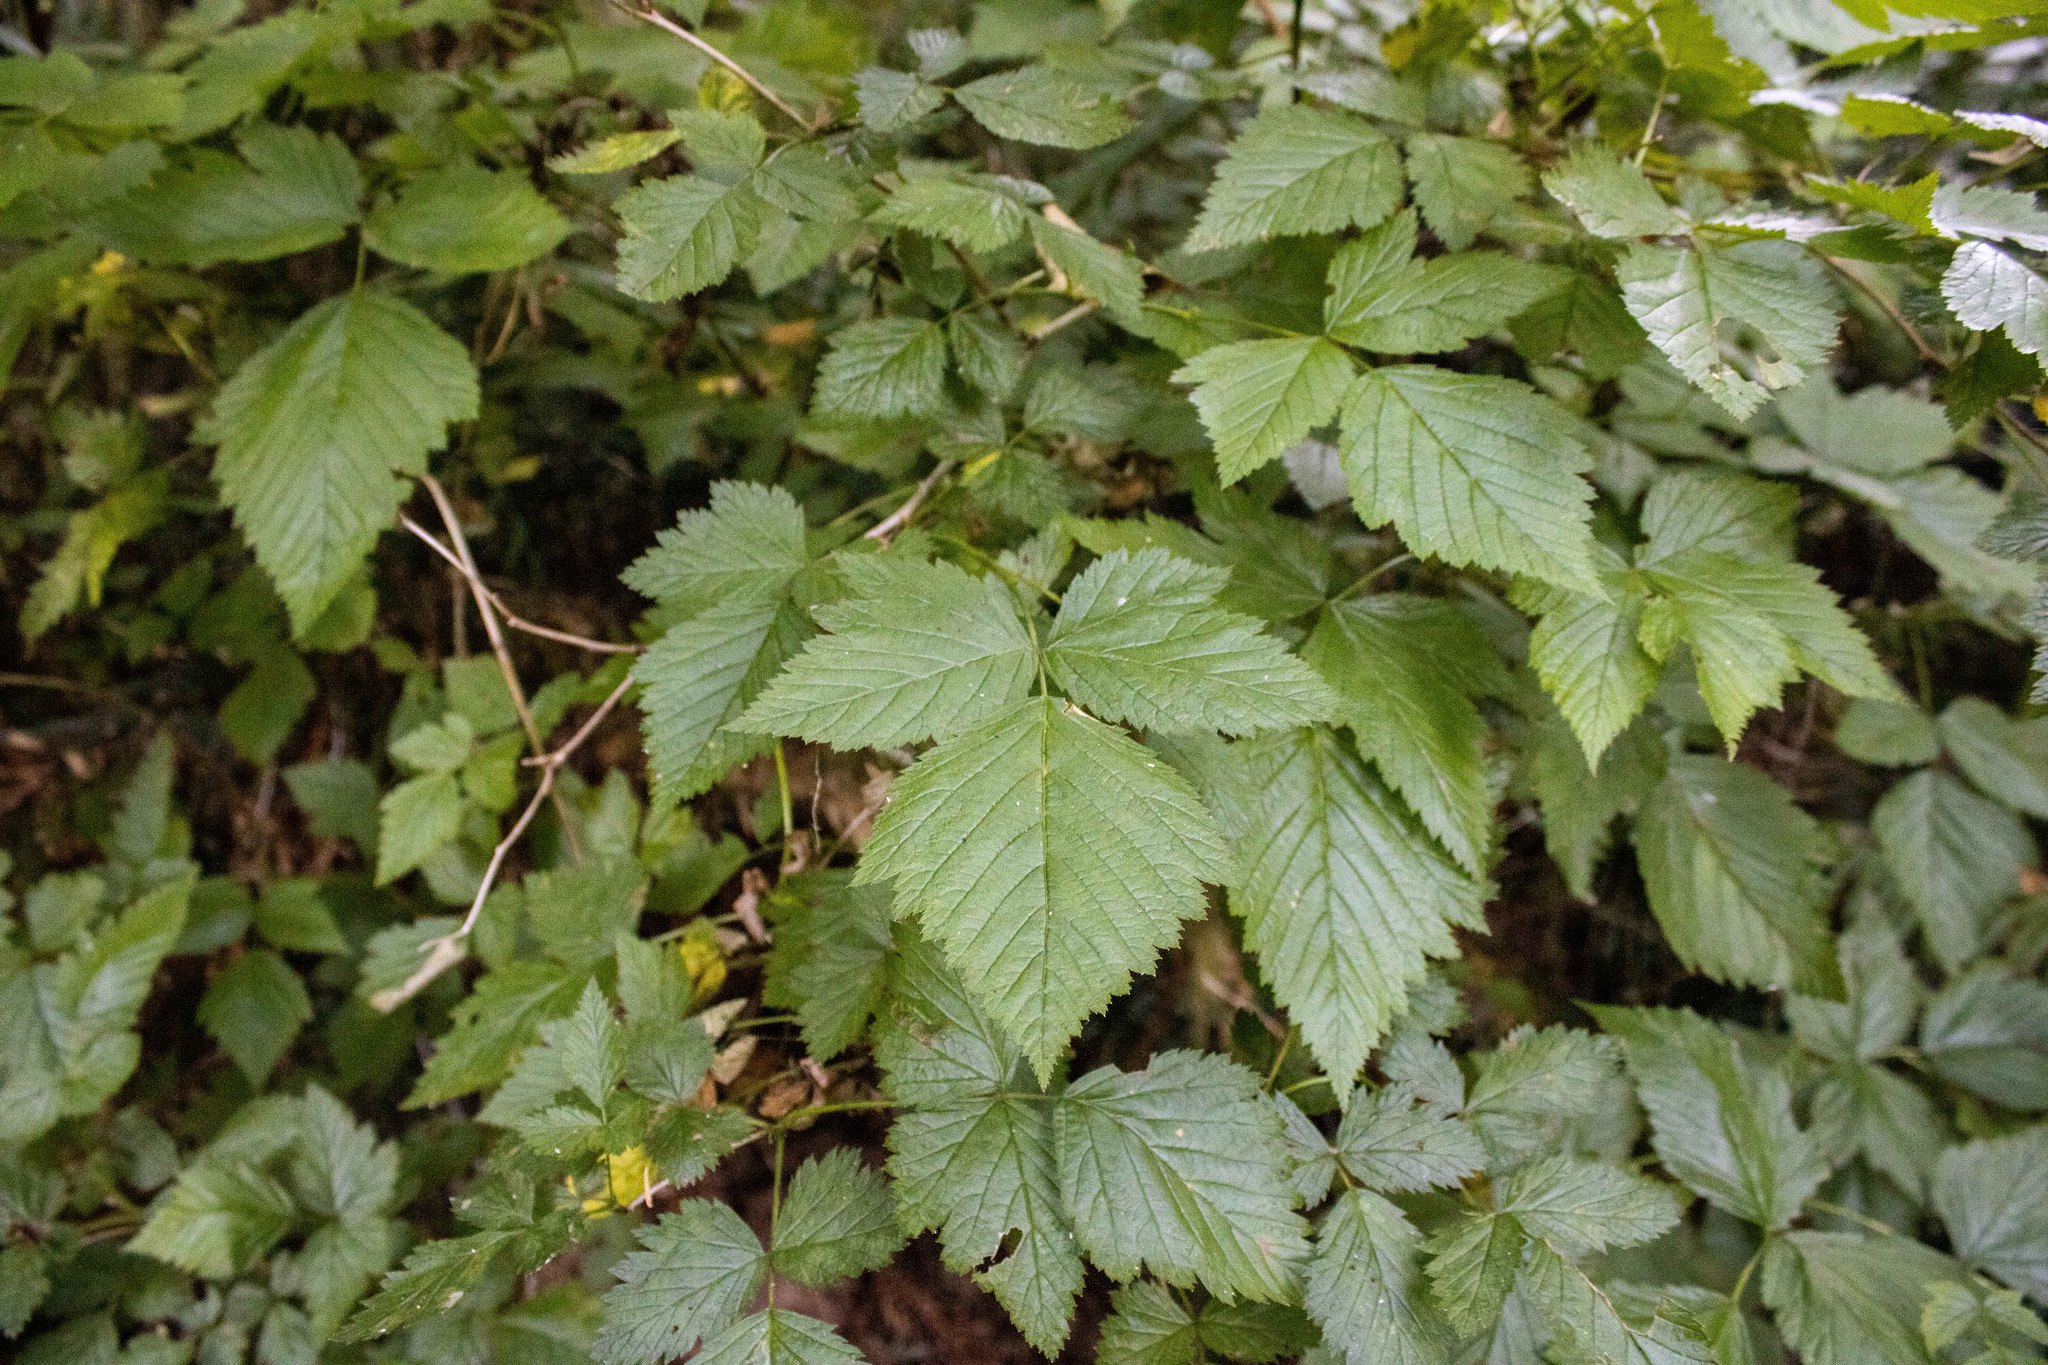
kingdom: Plantae
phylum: Tracheophyta
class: Magnoliopsida
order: Rosales
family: Rosaceae
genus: Rubus
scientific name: Rubus spectabilis
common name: Salmonberry
